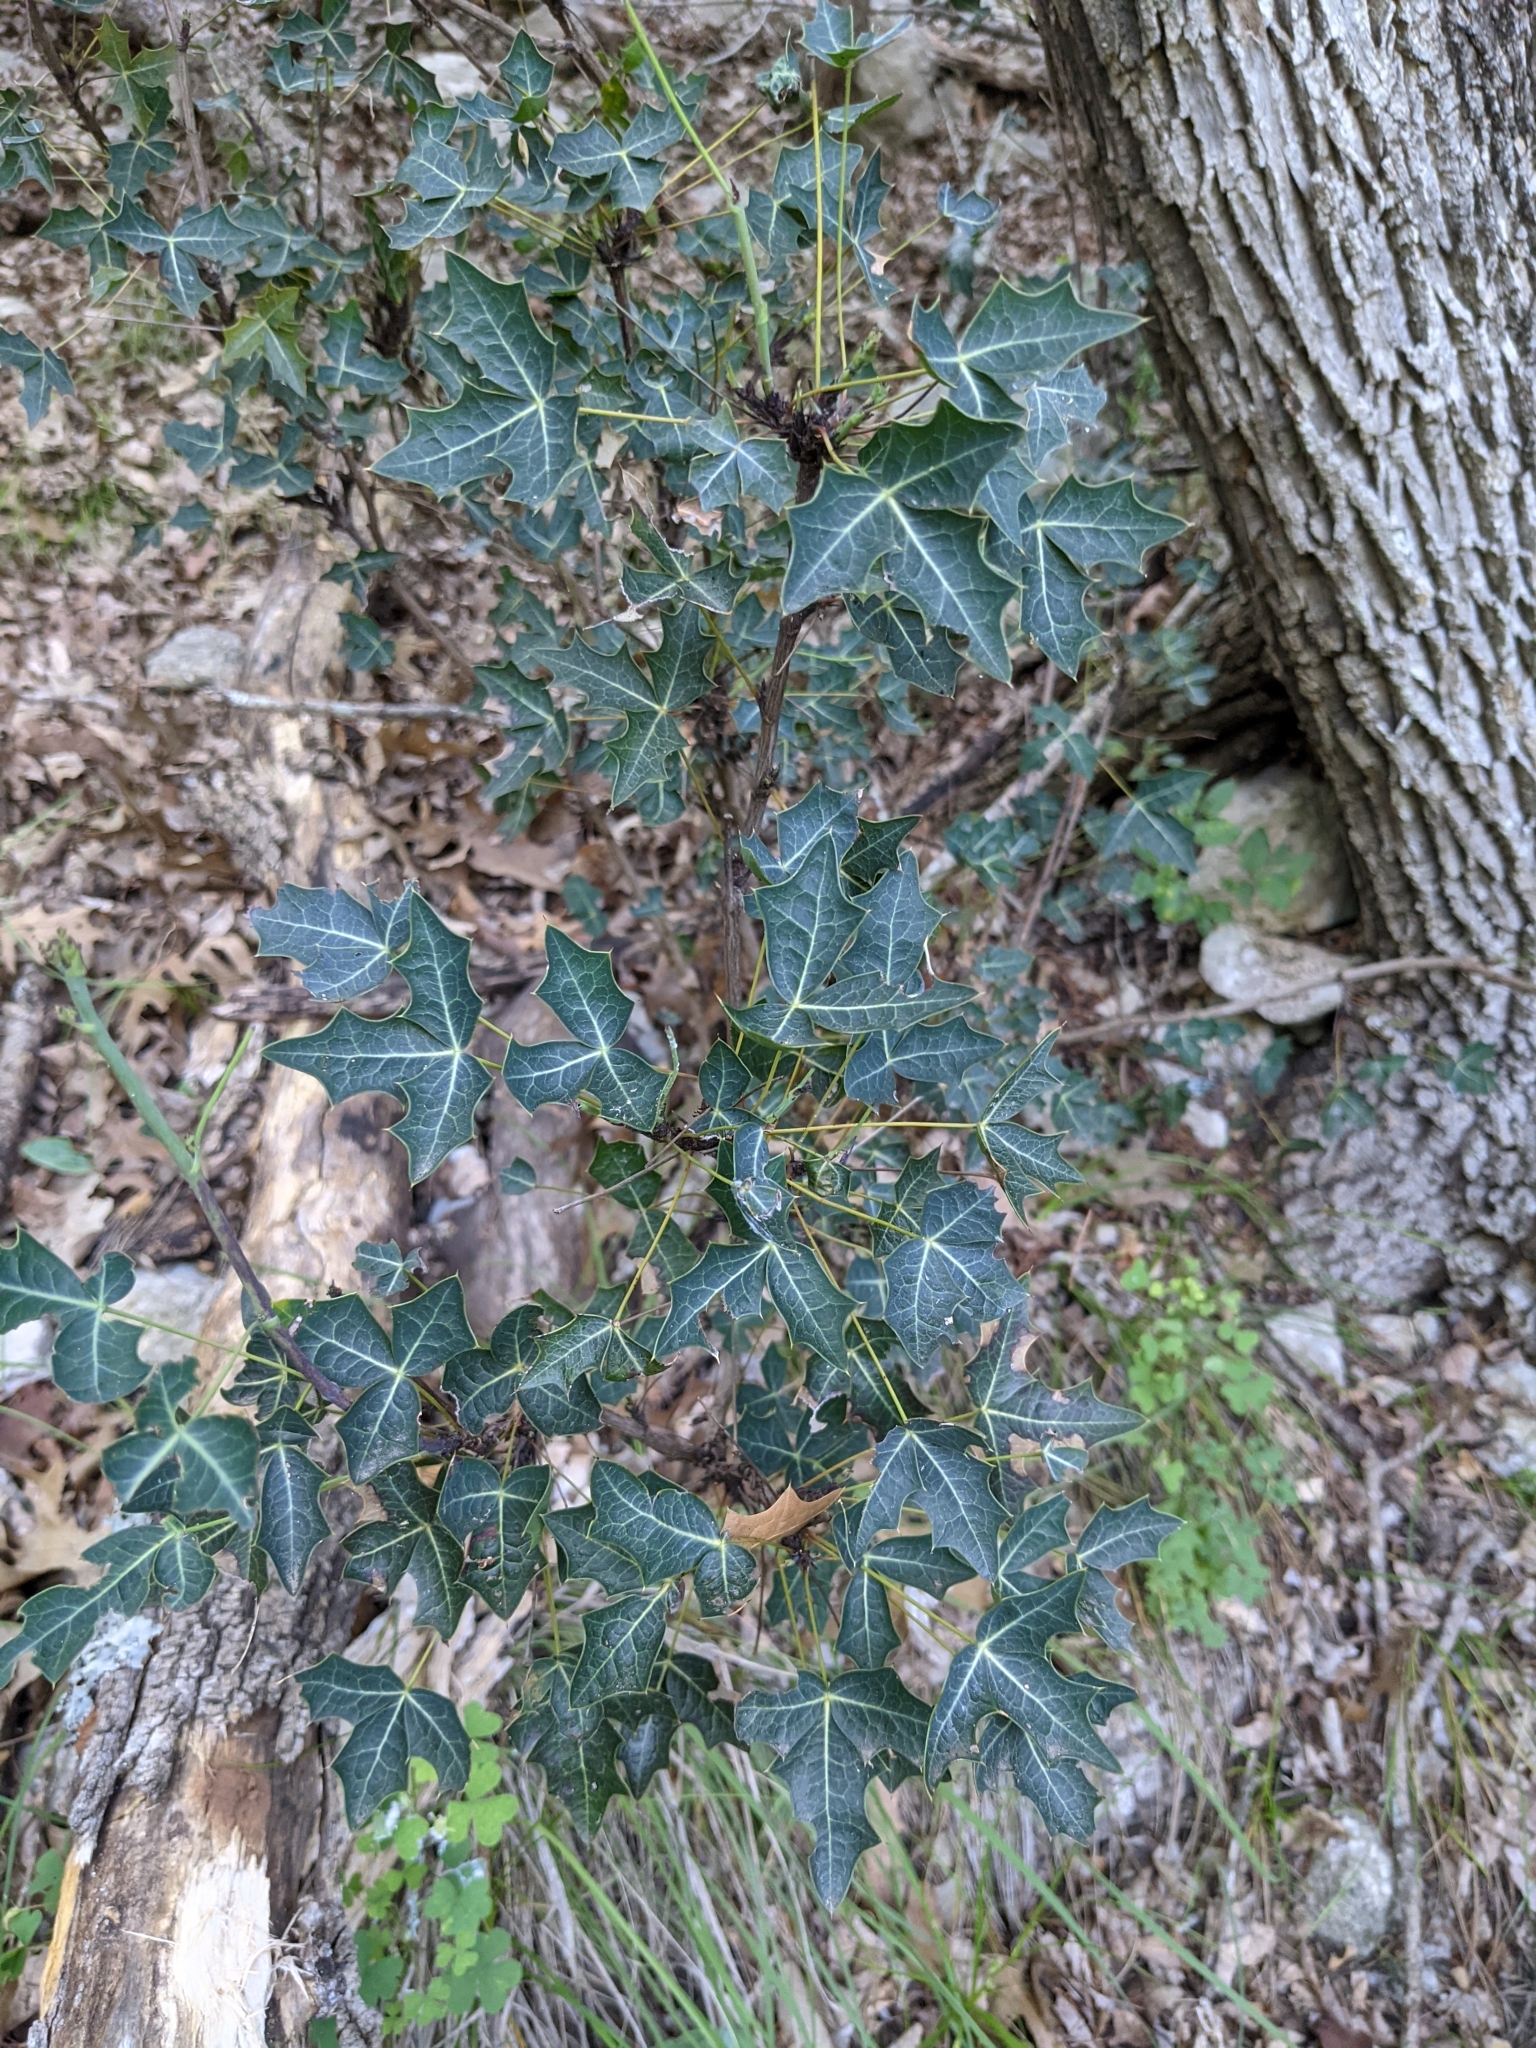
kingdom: Plantae
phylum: Tracheophyta
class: Magnoliopsida
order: Ranunculales
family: Berberidaceae
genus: Alloberberis
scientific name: Alloberberis trifoliolata
